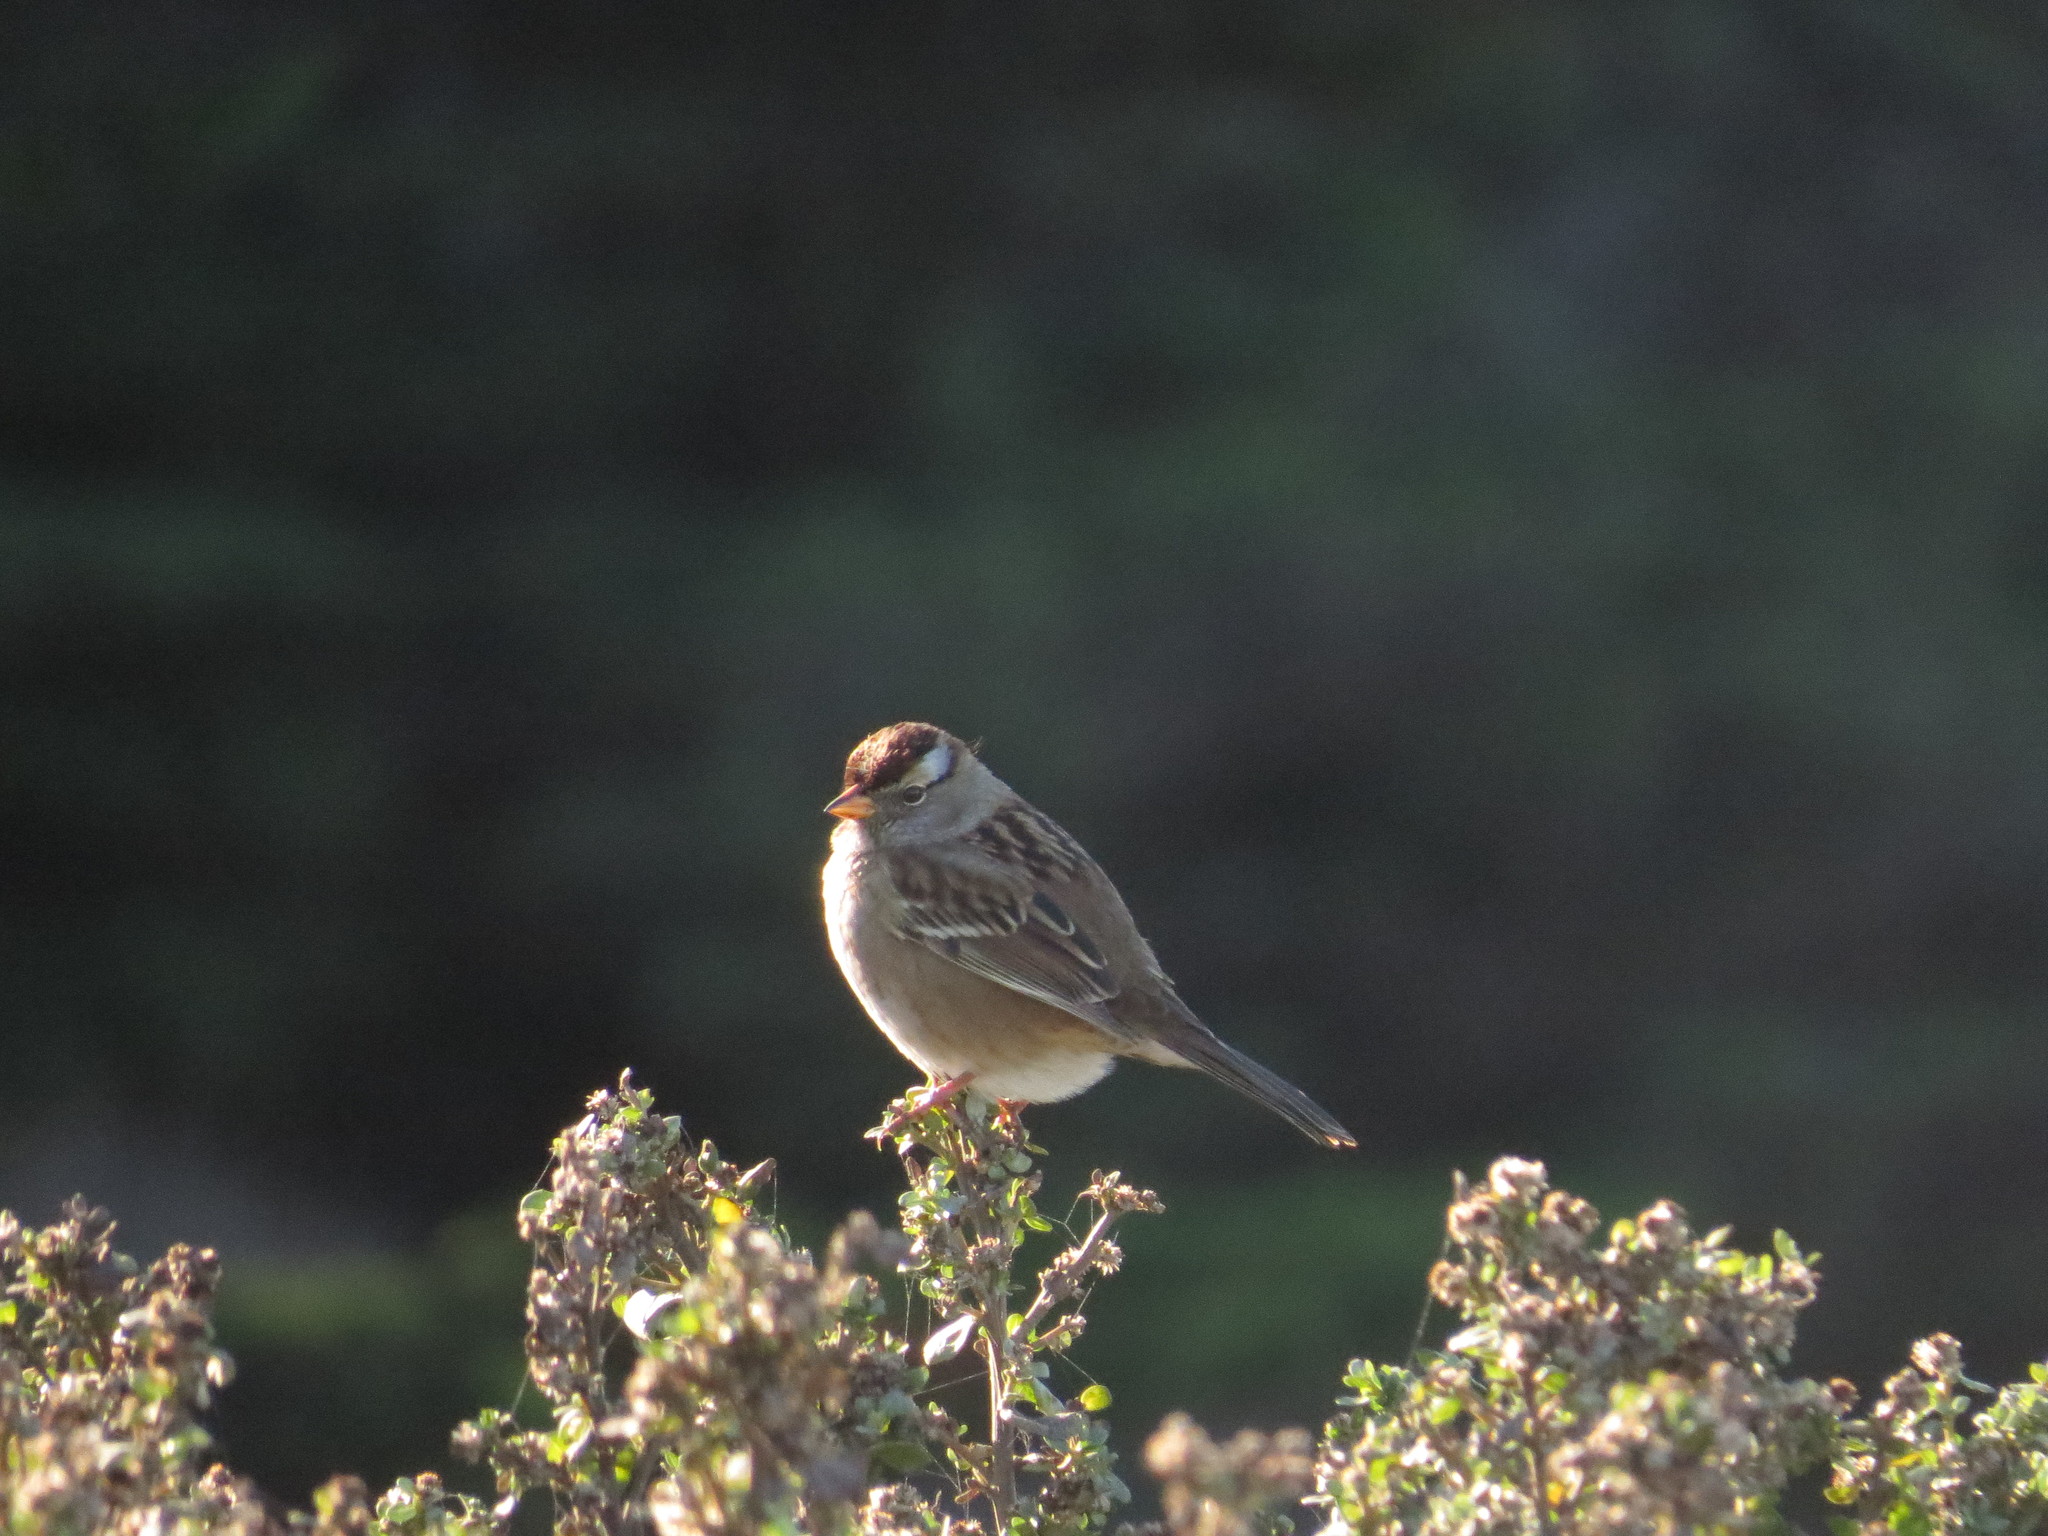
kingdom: Animalia
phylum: Chordata
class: Aves
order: Passeriformes
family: Passerellidae
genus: Zonotrichia
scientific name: Zonotrichia leucophrys
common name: White-crowned sparrow
